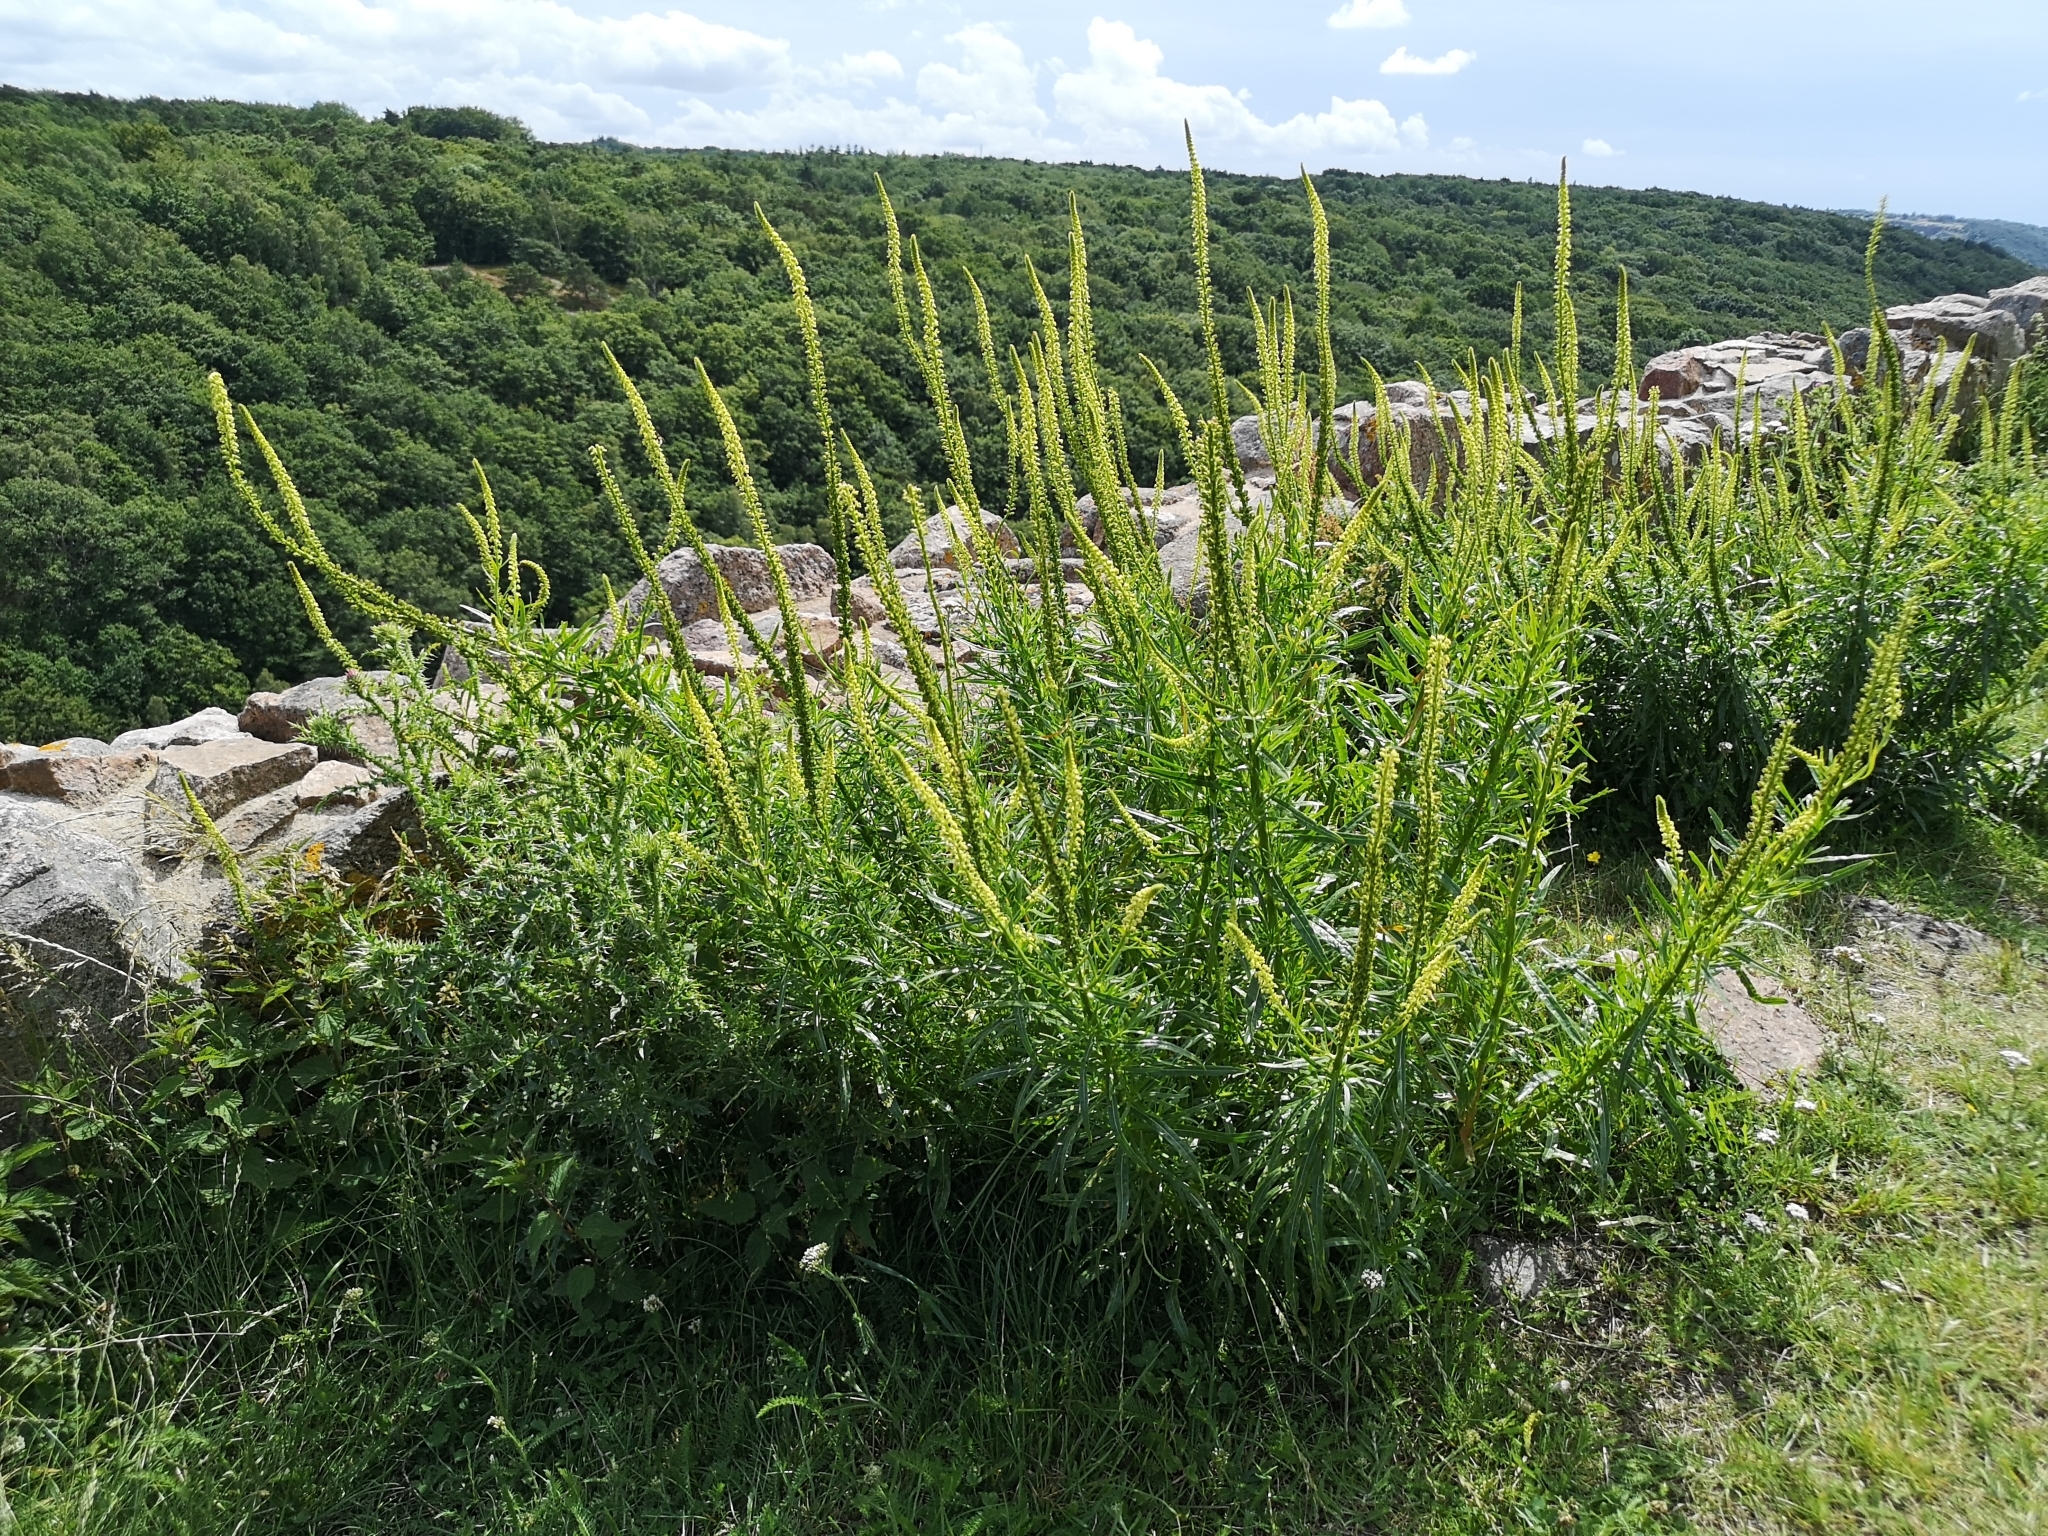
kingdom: Plantae
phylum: Tracheophyta
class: Magnoliopsida
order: Brassicales
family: Resedaceae
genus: Reseda
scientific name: Reseda luteola
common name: Weld
